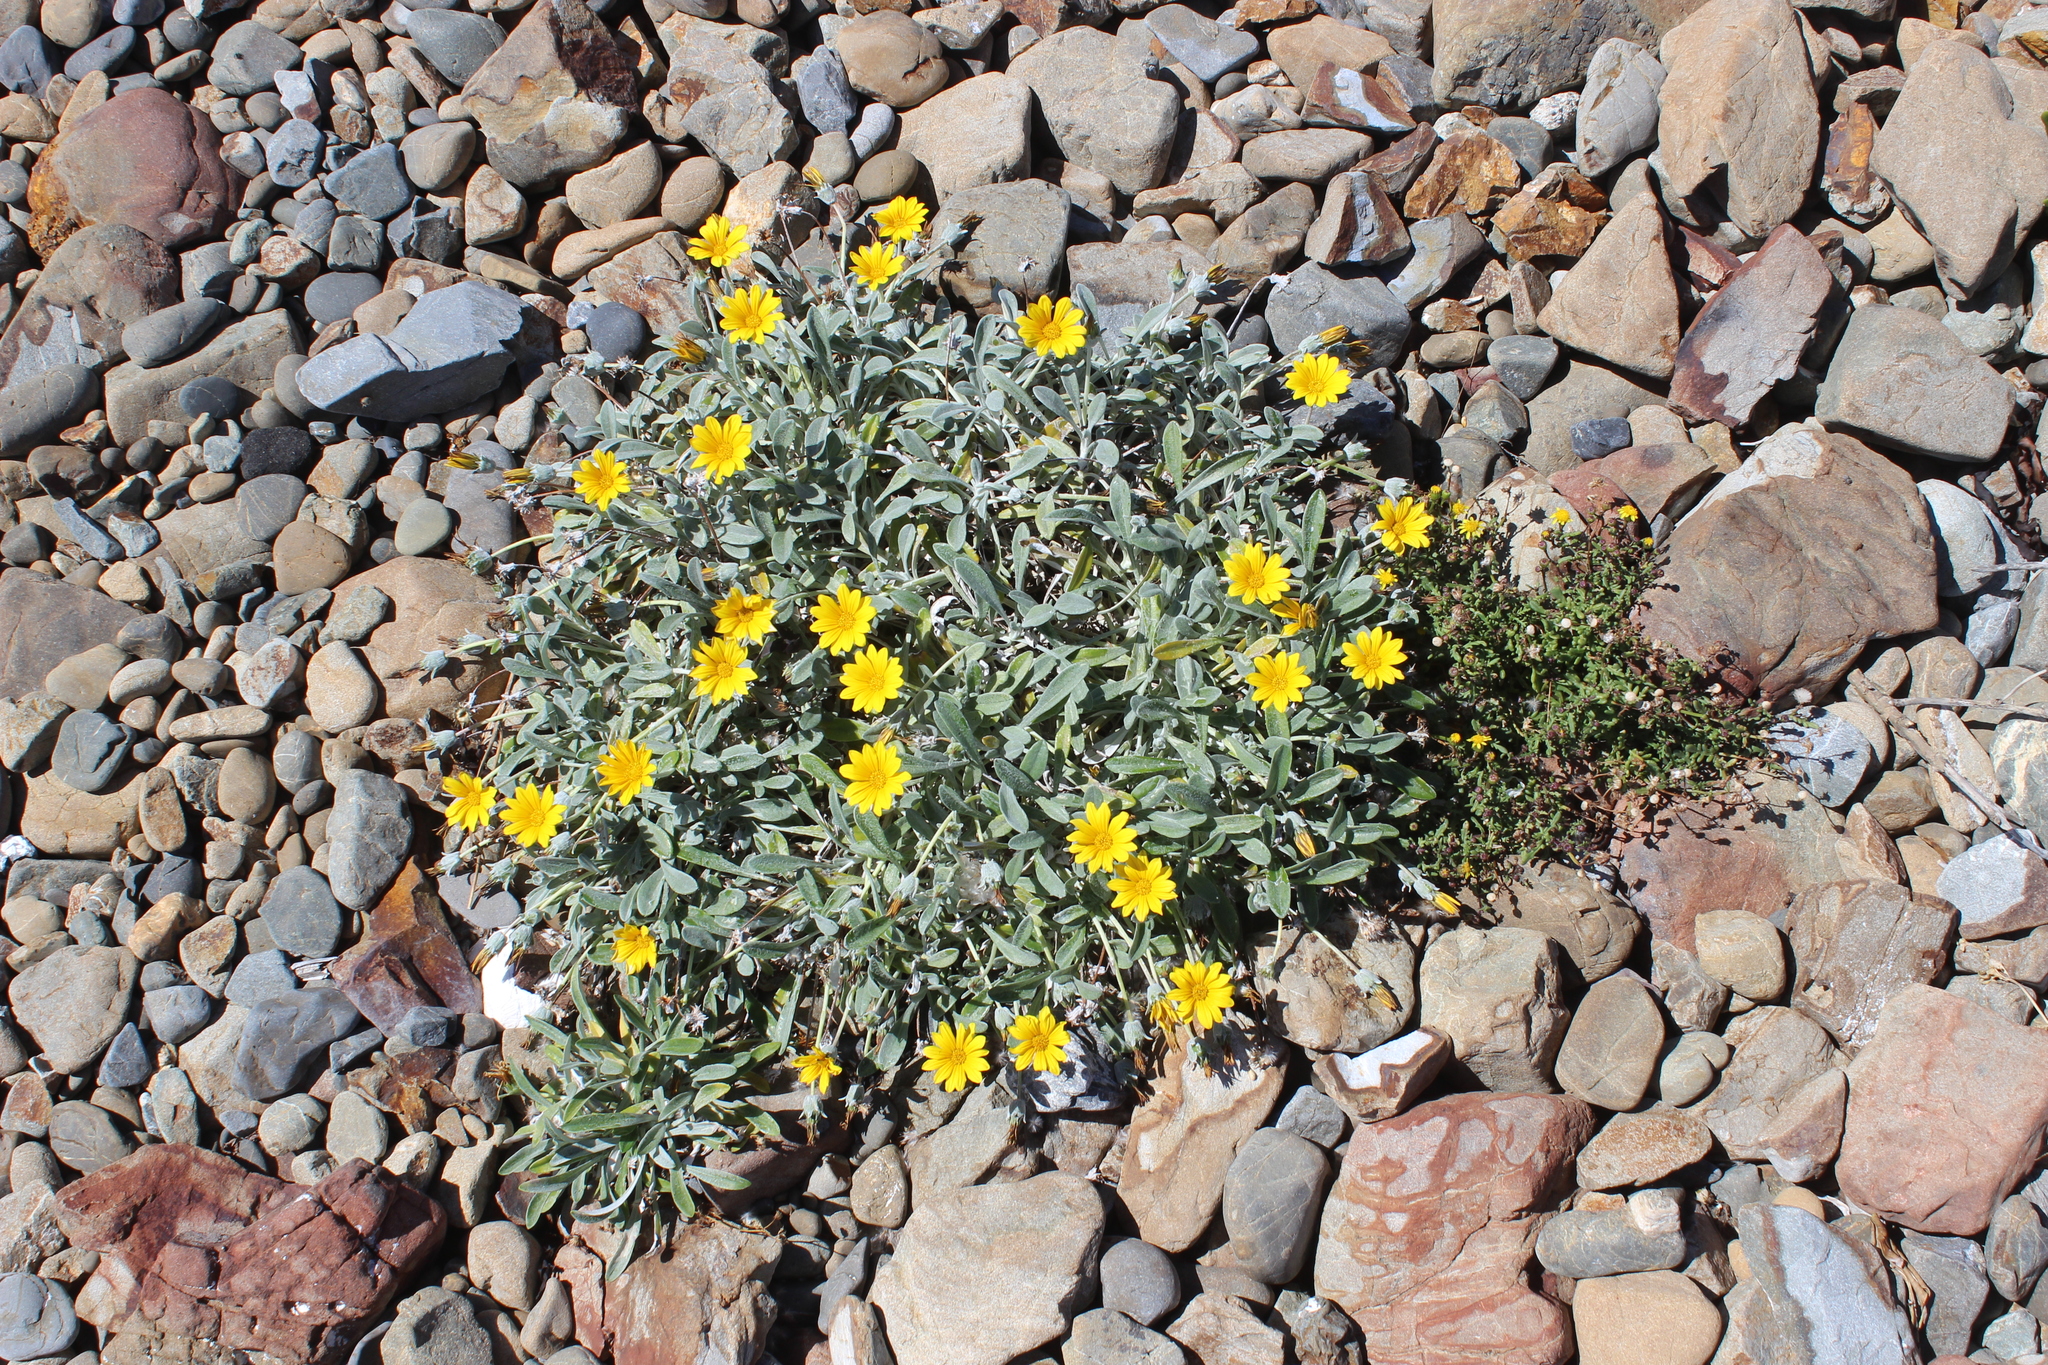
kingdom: Plantae
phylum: Tracheophyta
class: Magnoliopsida
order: Asterales
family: Asteraceae
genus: Gazania
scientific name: Gazania splendens
